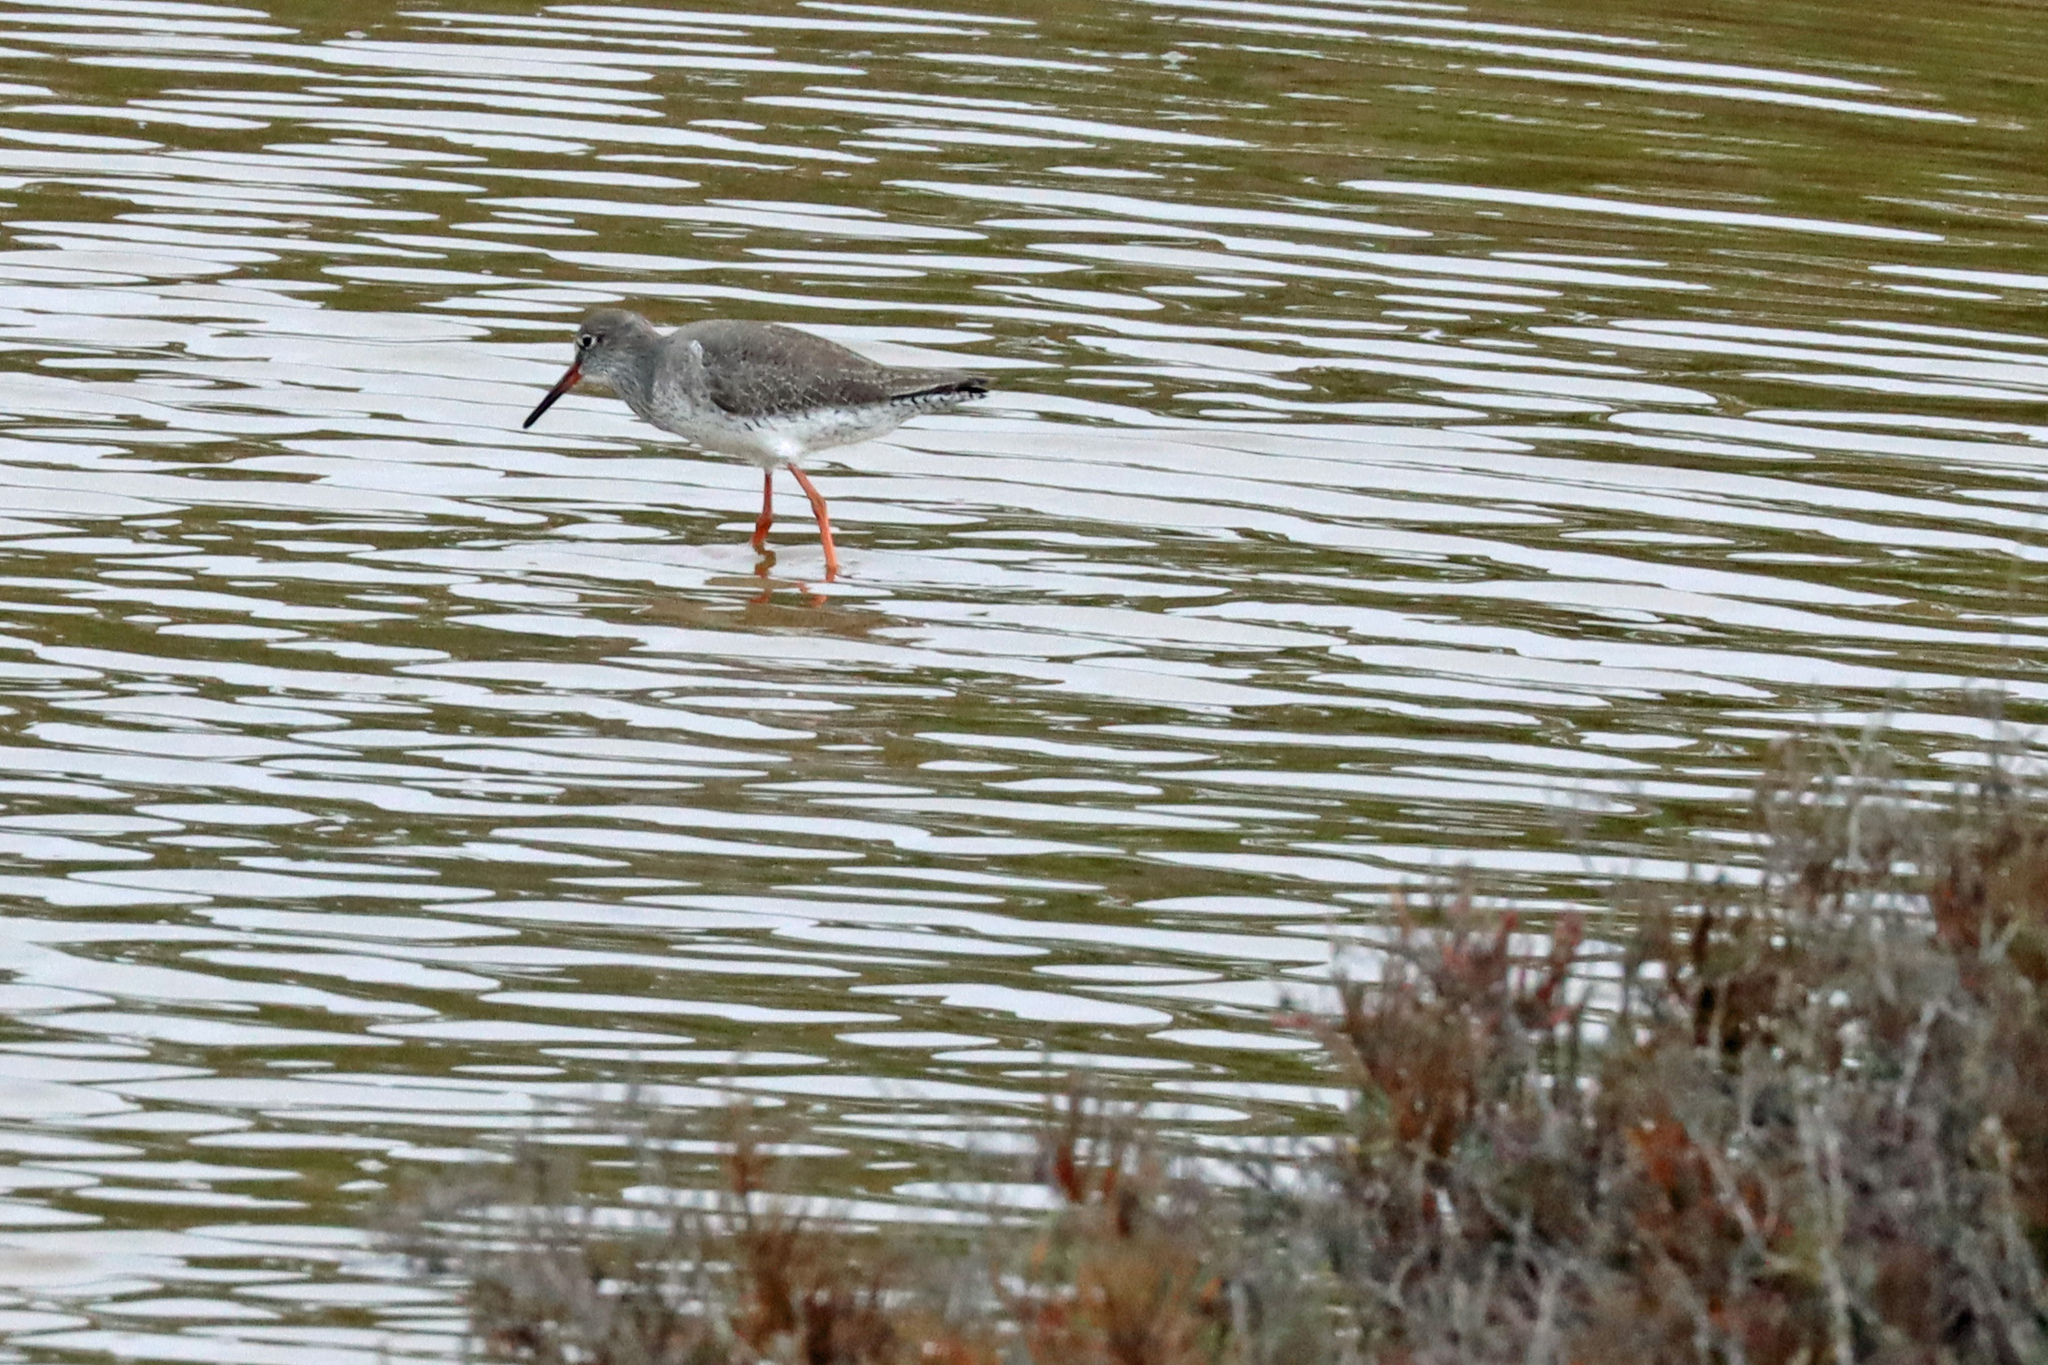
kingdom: Animalia
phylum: Chordata
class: Aves
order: Charadriiformes
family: Scolopacidae
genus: Tringa
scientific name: Tringa totanus
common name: Common redshank
